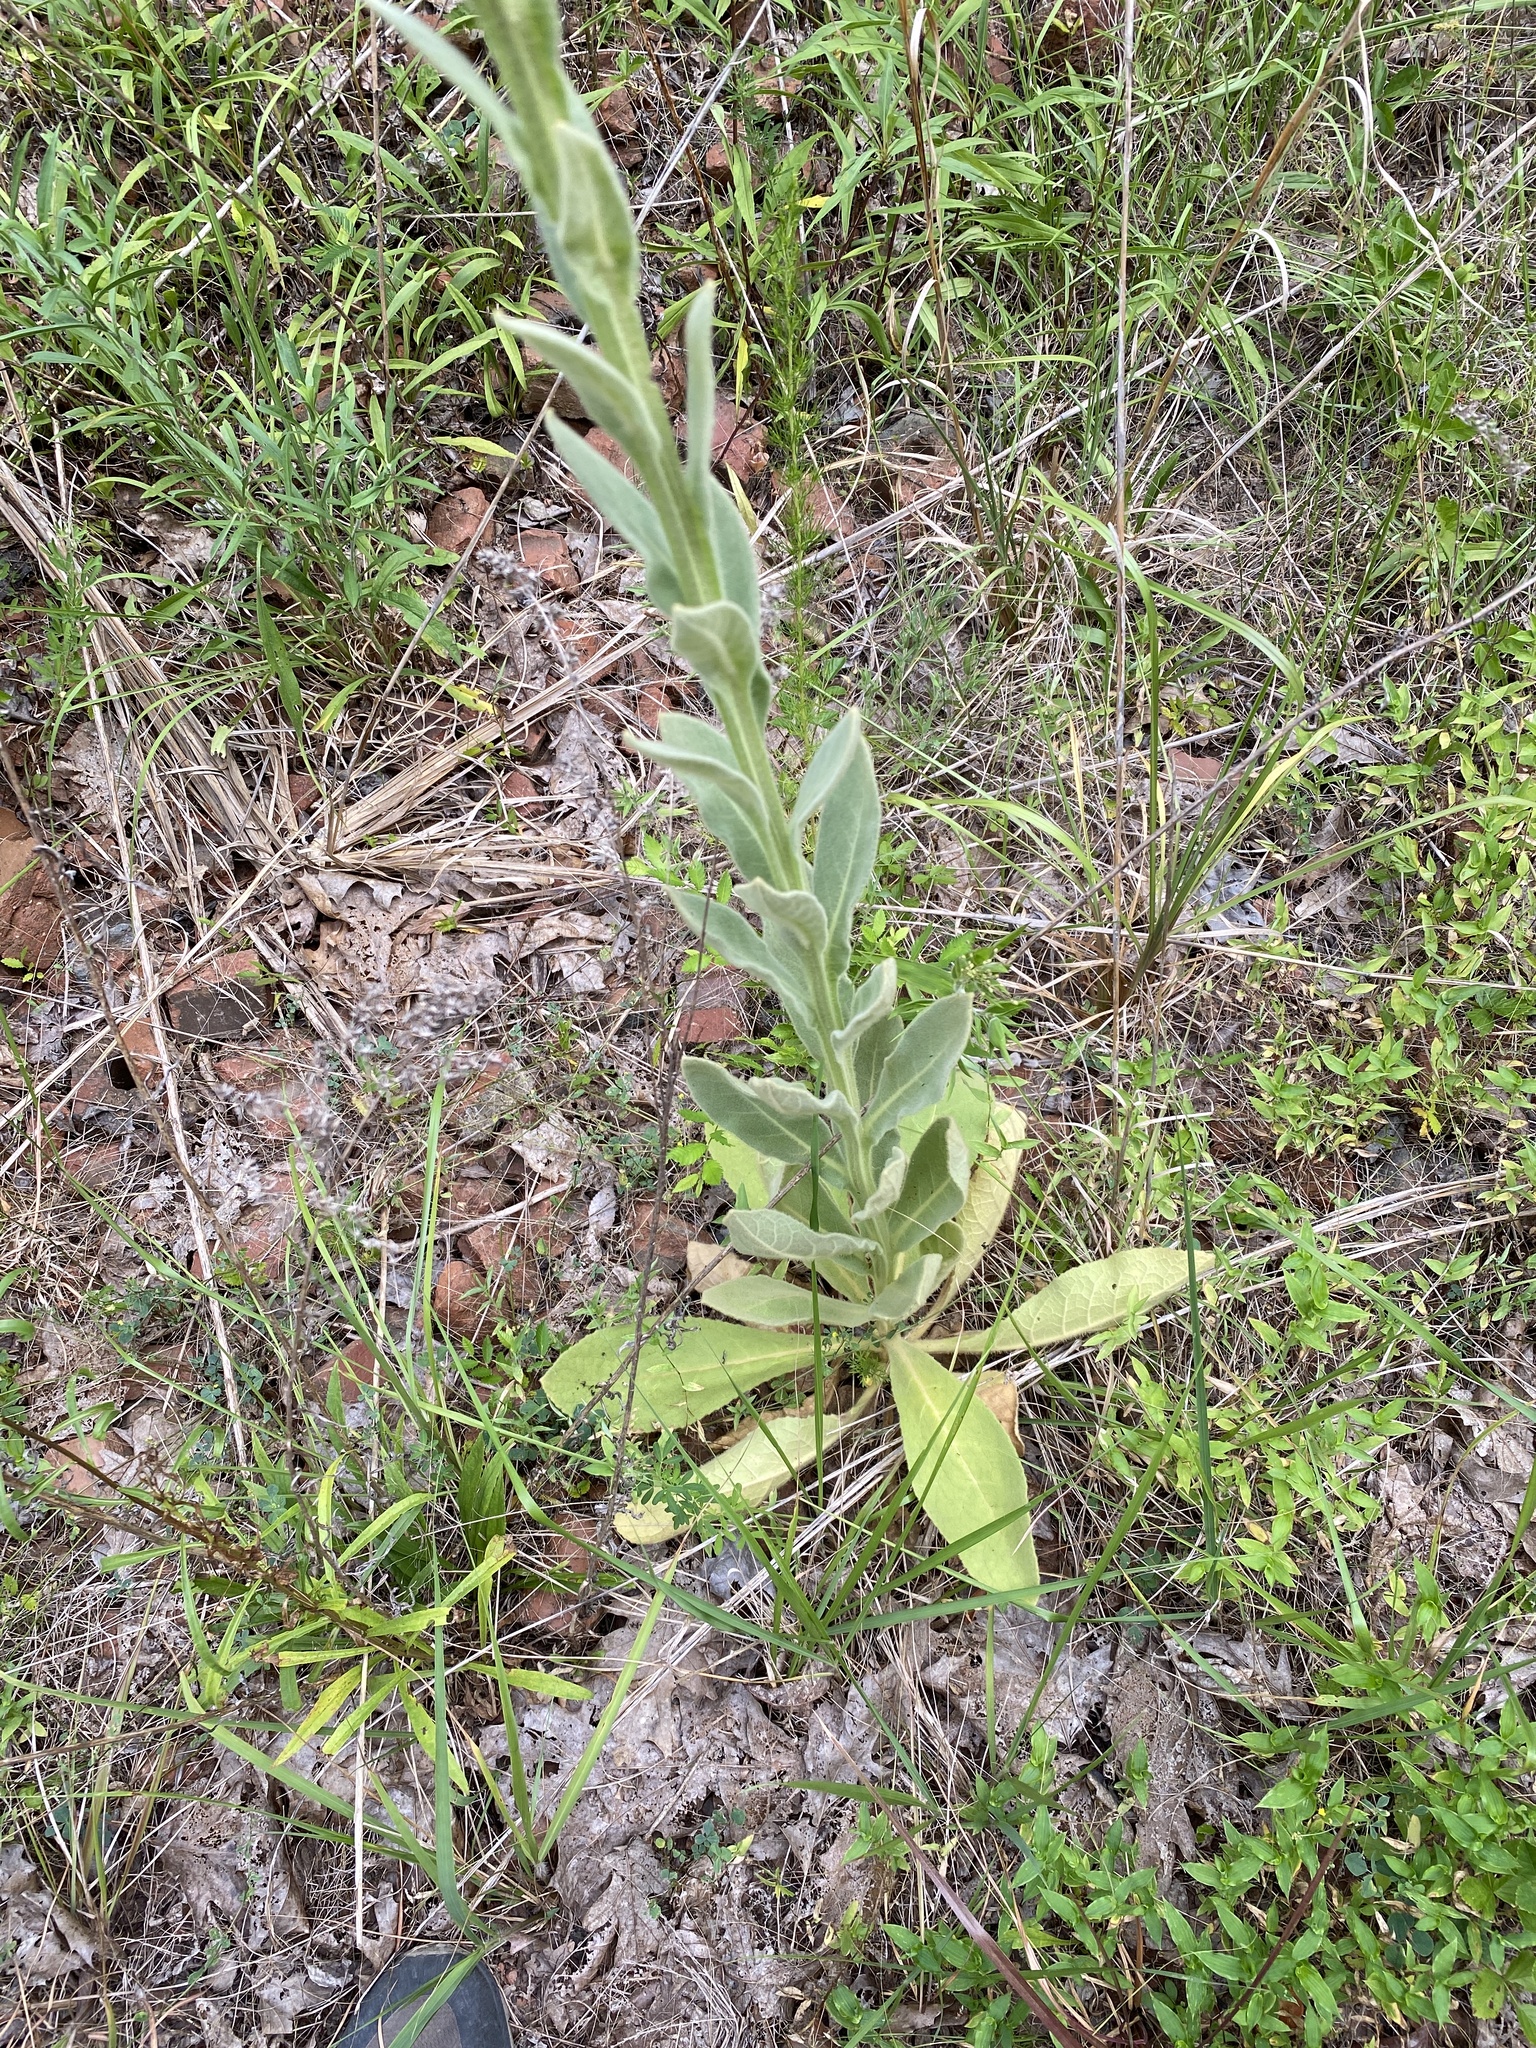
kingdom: Plantae
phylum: Tracheophyta
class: Magnoliopsida
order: Lamiales
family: Scrophulariaceae
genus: Verbascum
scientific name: Verbascum thapsus
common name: Common mullein
